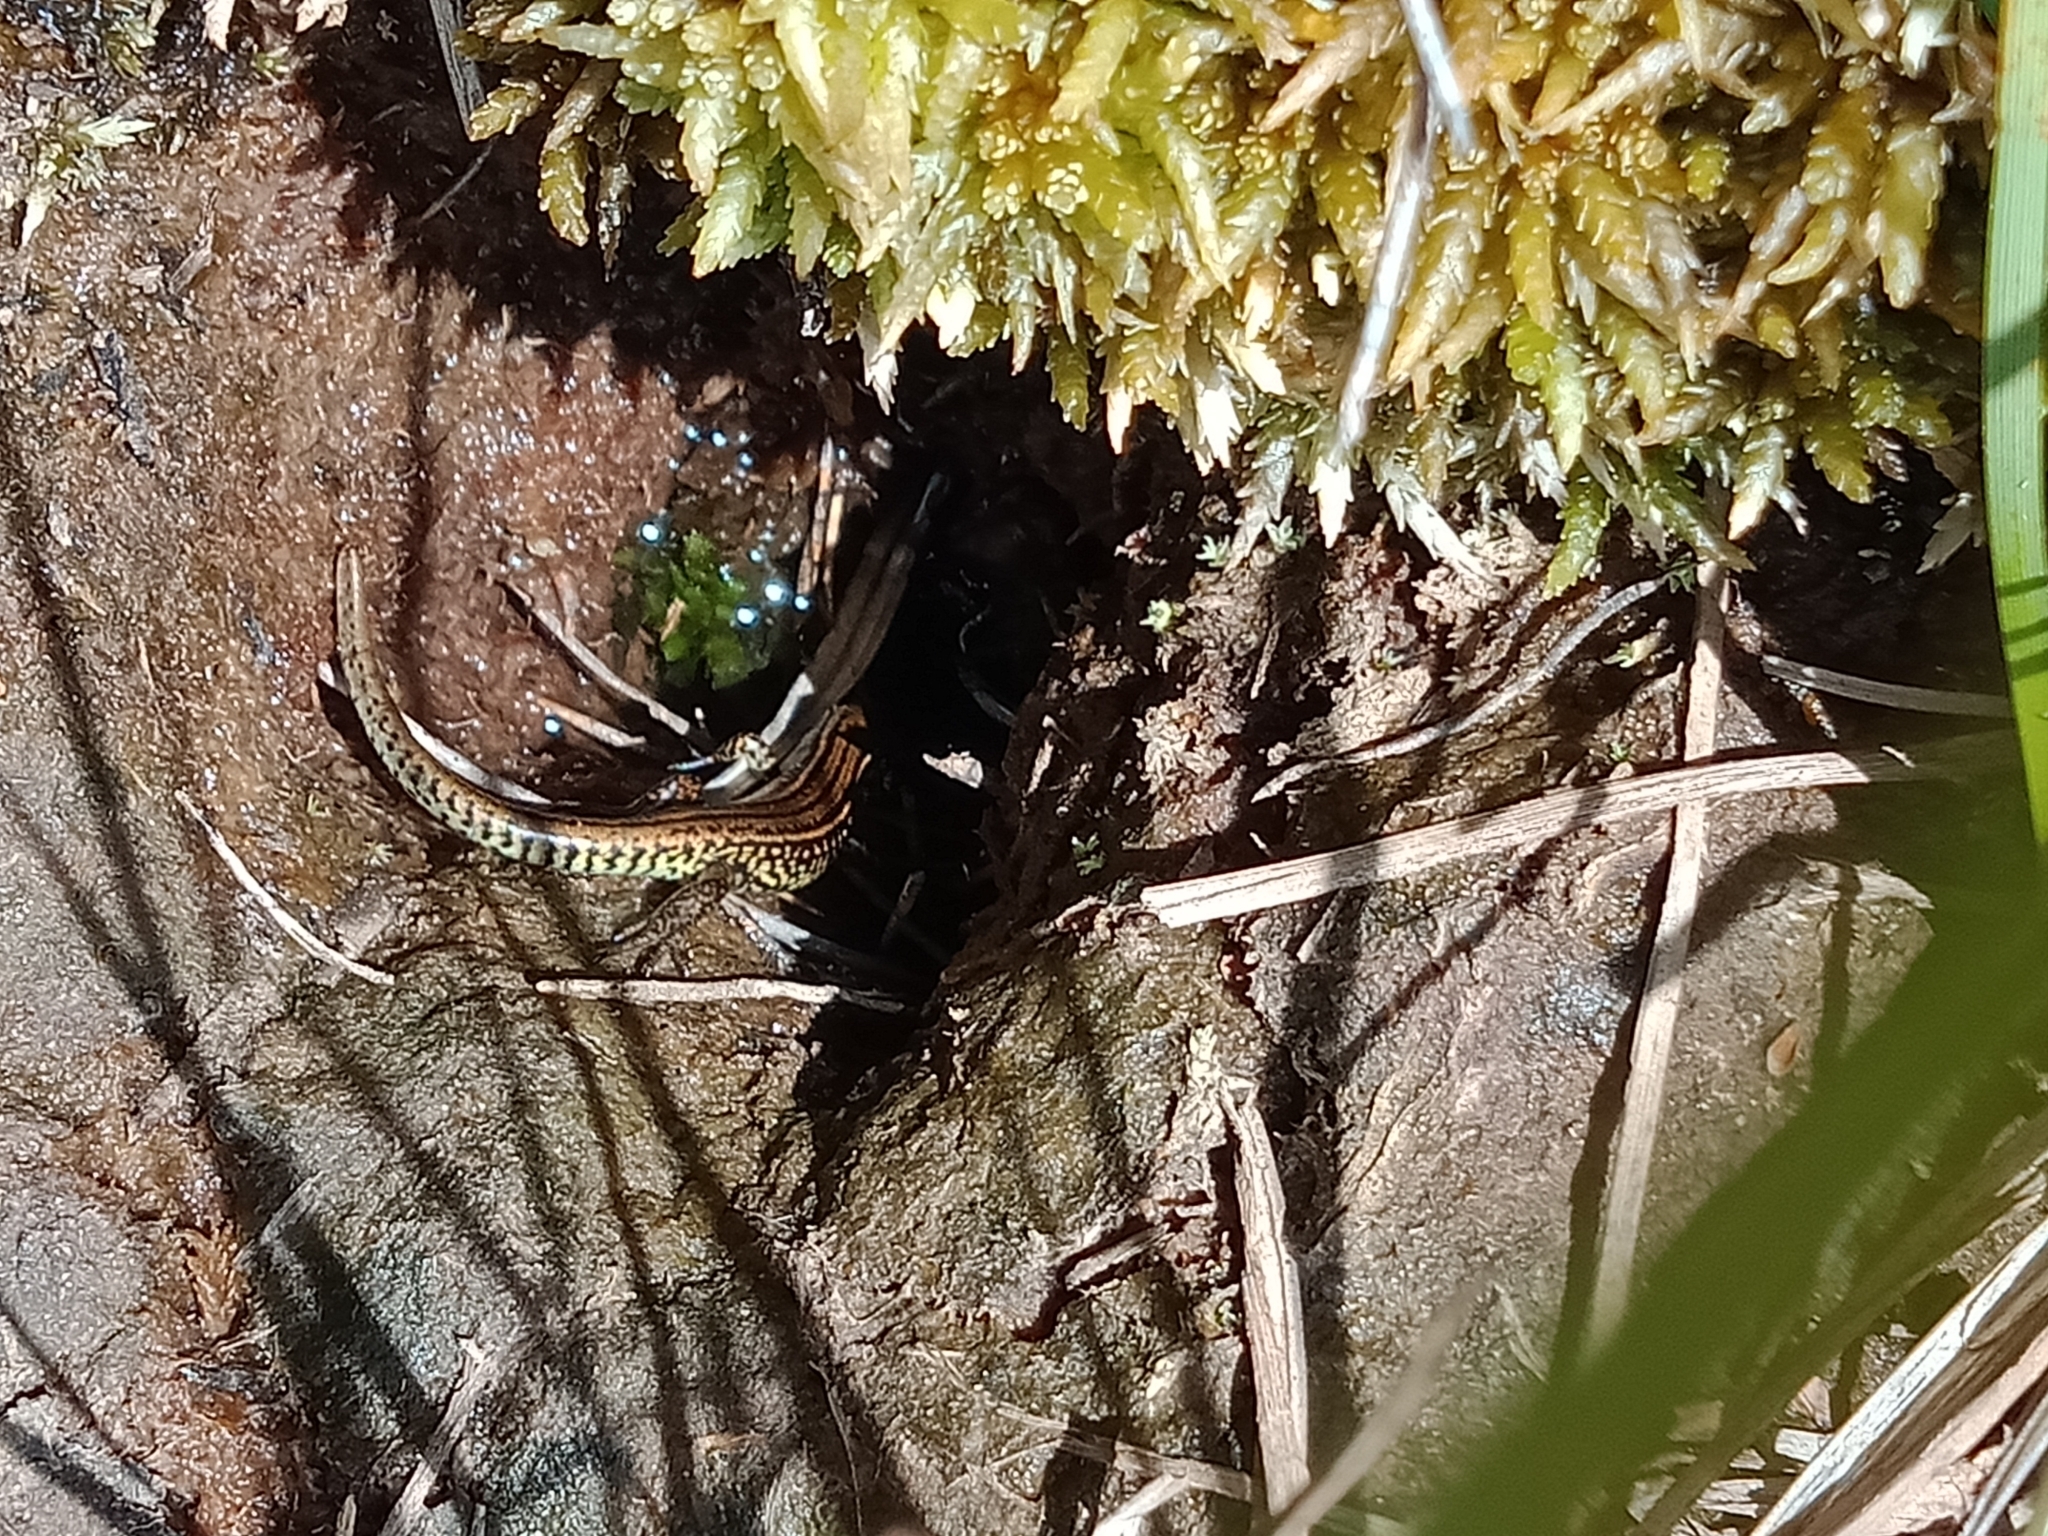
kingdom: Animalia
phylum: Chordata
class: Squamata
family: Scincidae
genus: Eulamprus
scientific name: Eulamprus kosciuskoi
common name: Alpine meadow-skink
